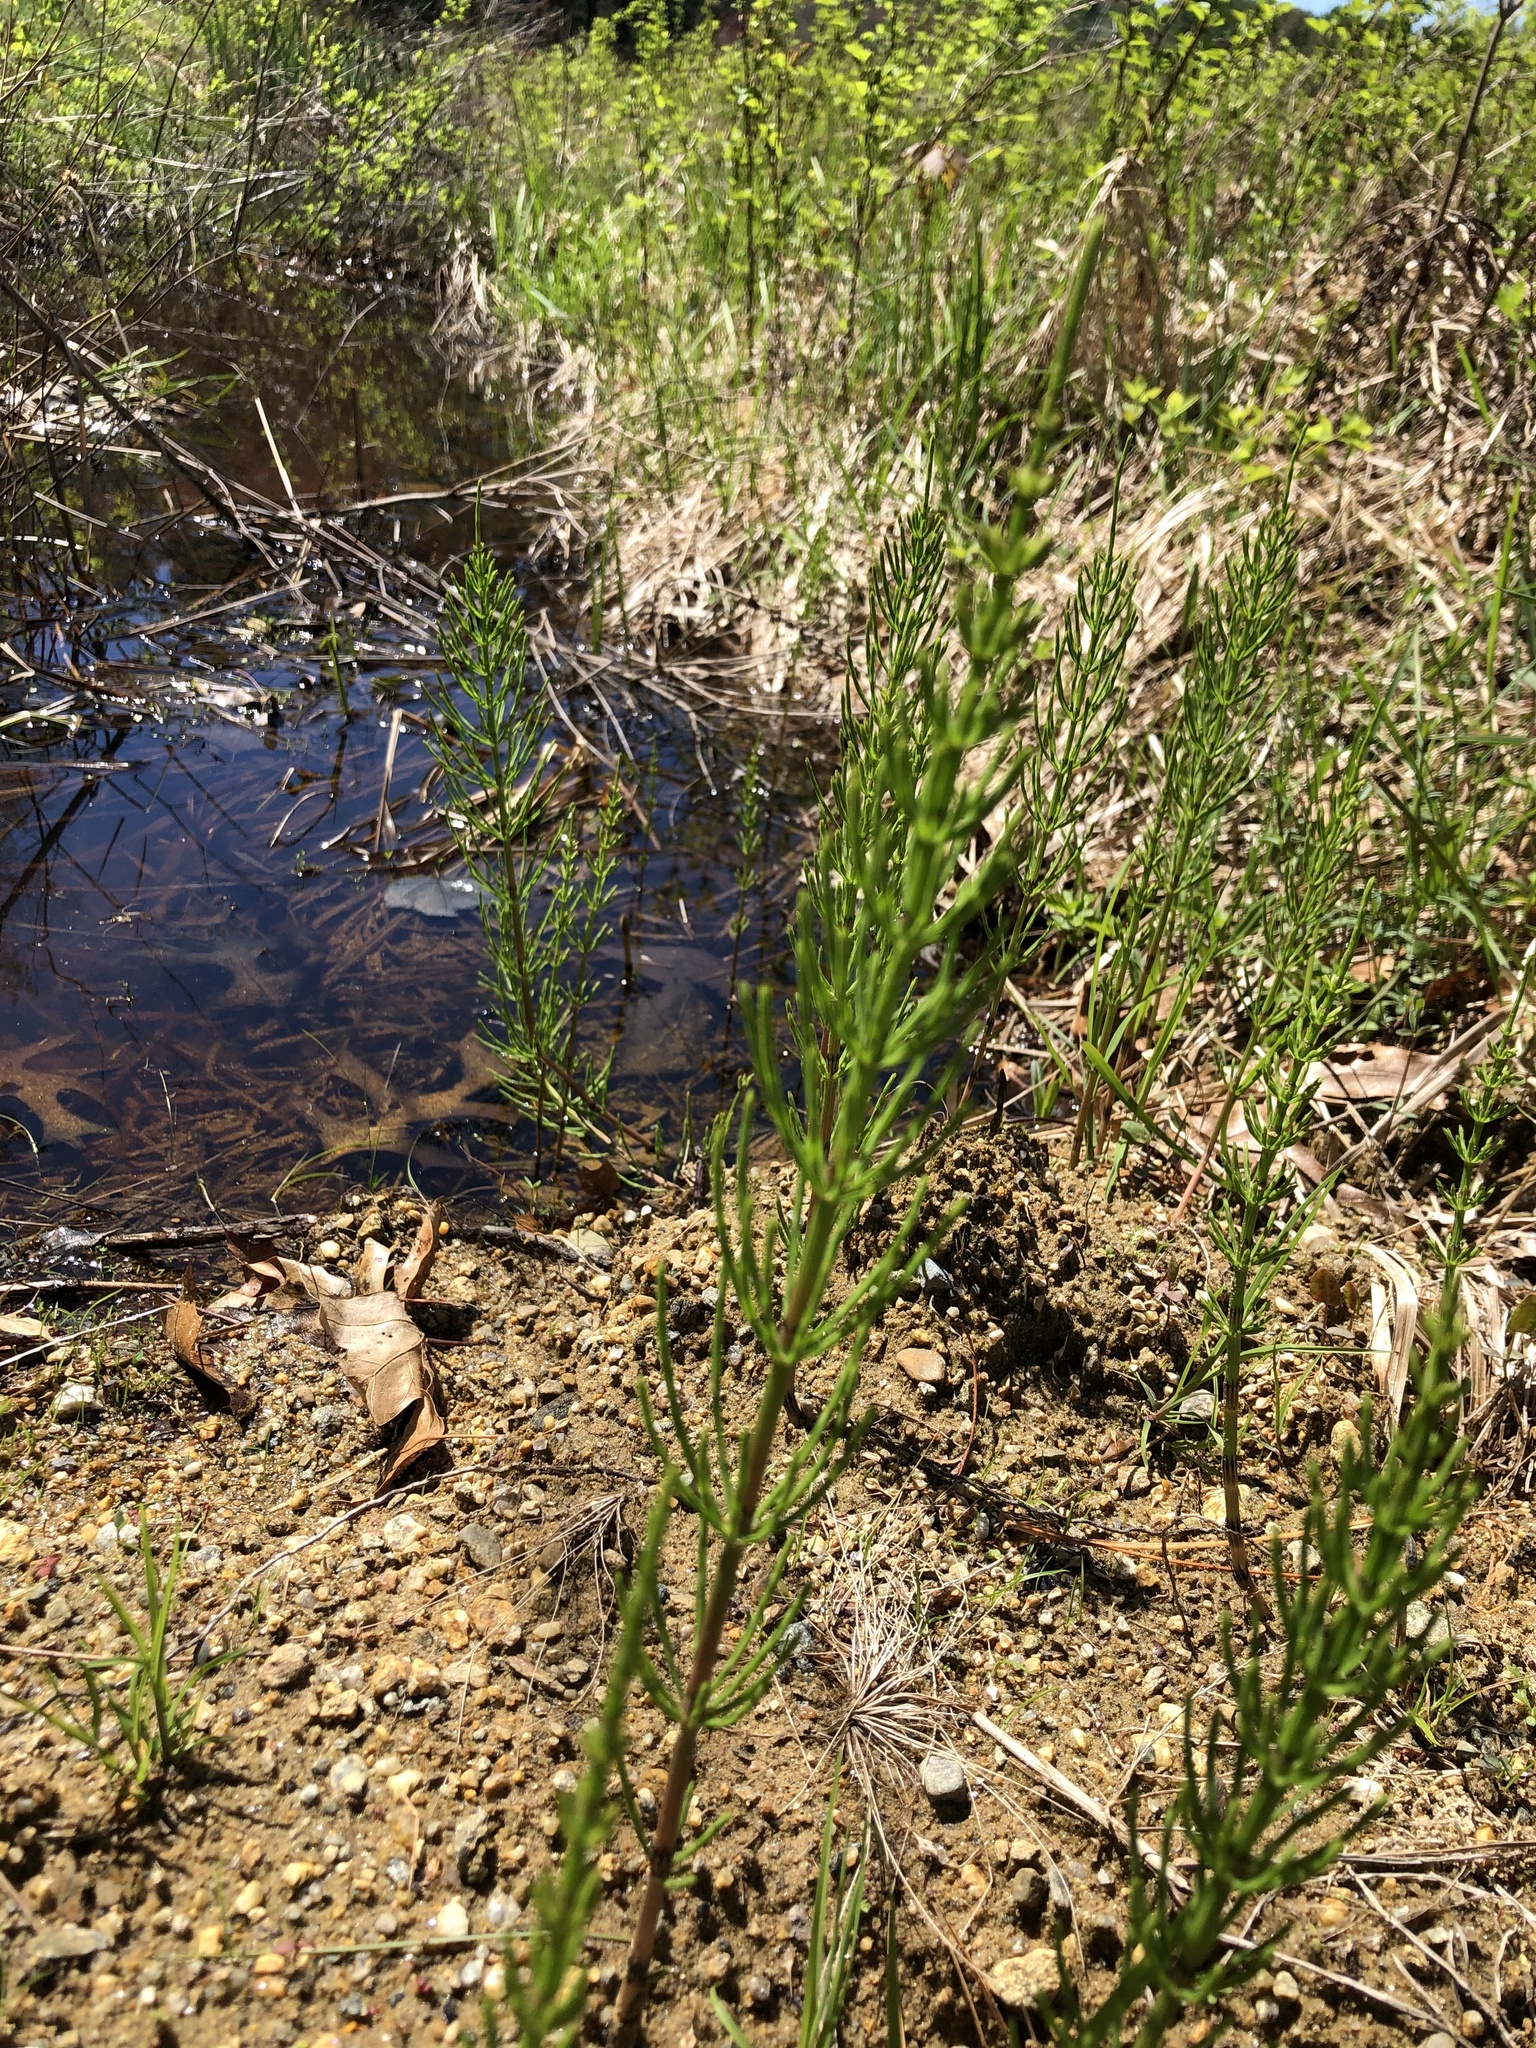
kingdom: Plantae
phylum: Tracheophyta
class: Polypodiopsida
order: Equisetales
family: Equisetaceae
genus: Equisetum
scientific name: Equisetum arvense
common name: Field horsetail
